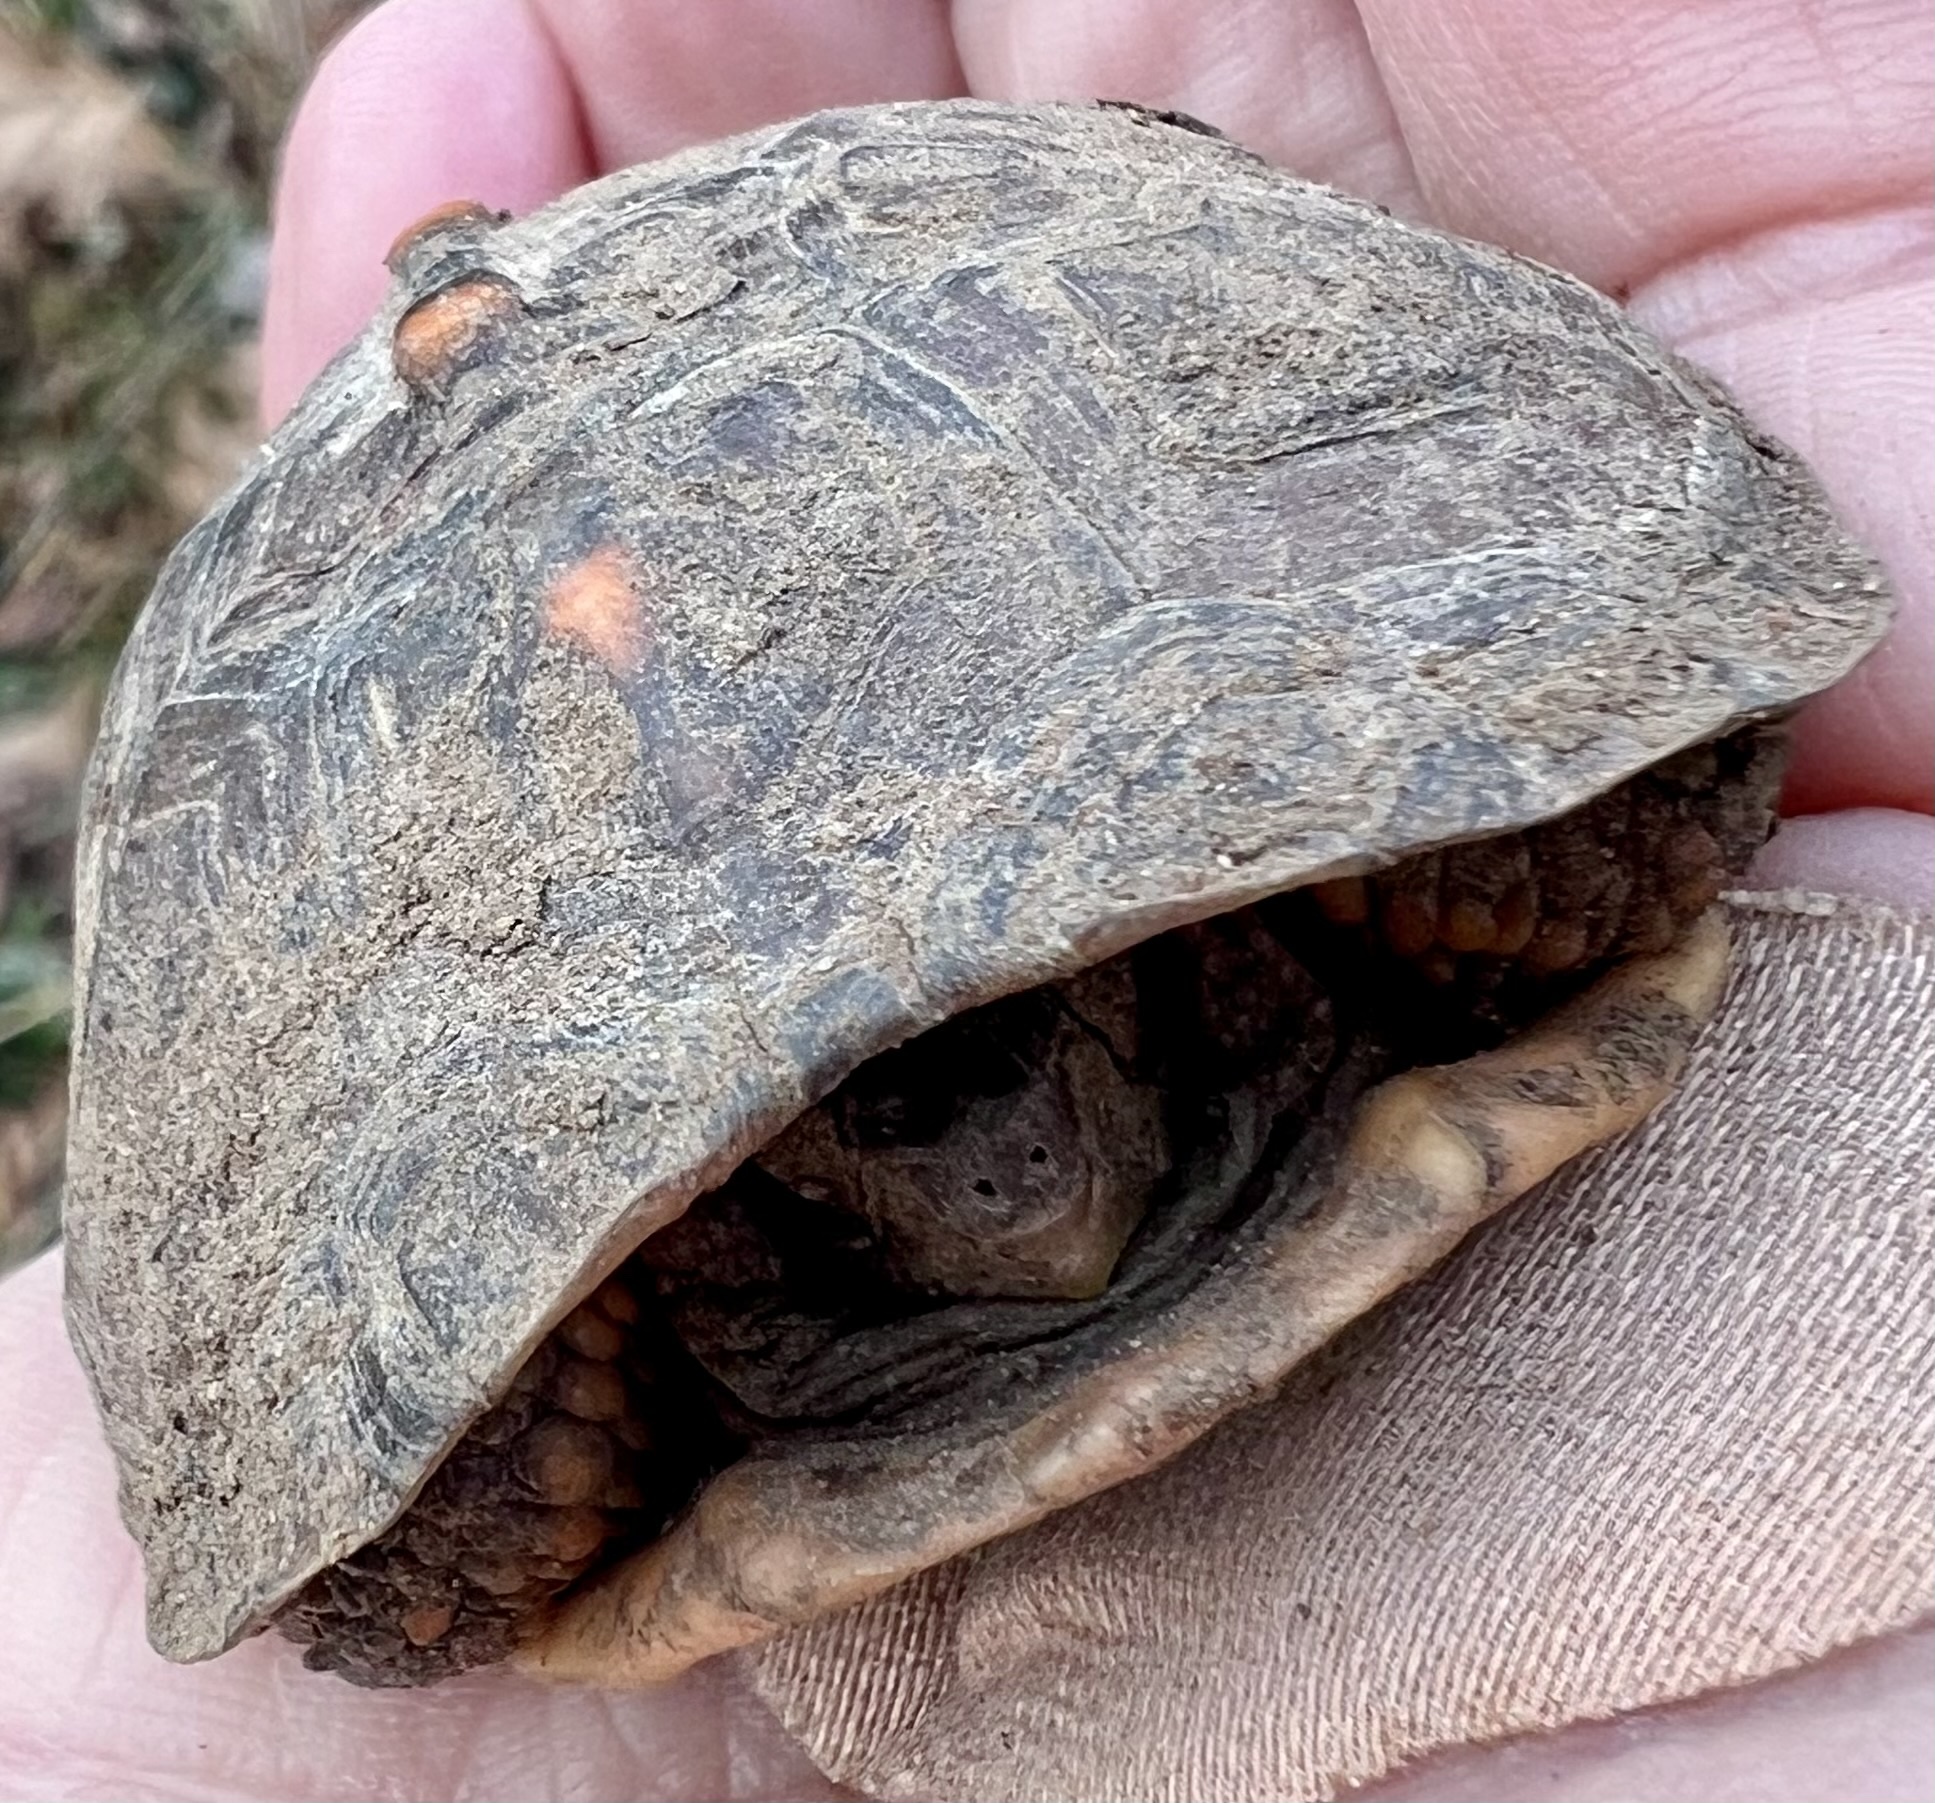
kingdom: Animalia
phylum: Chordata
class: Testudines
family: Emydidae
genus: Terrapene
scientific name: Terrapene carolina
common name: Common box turtle
